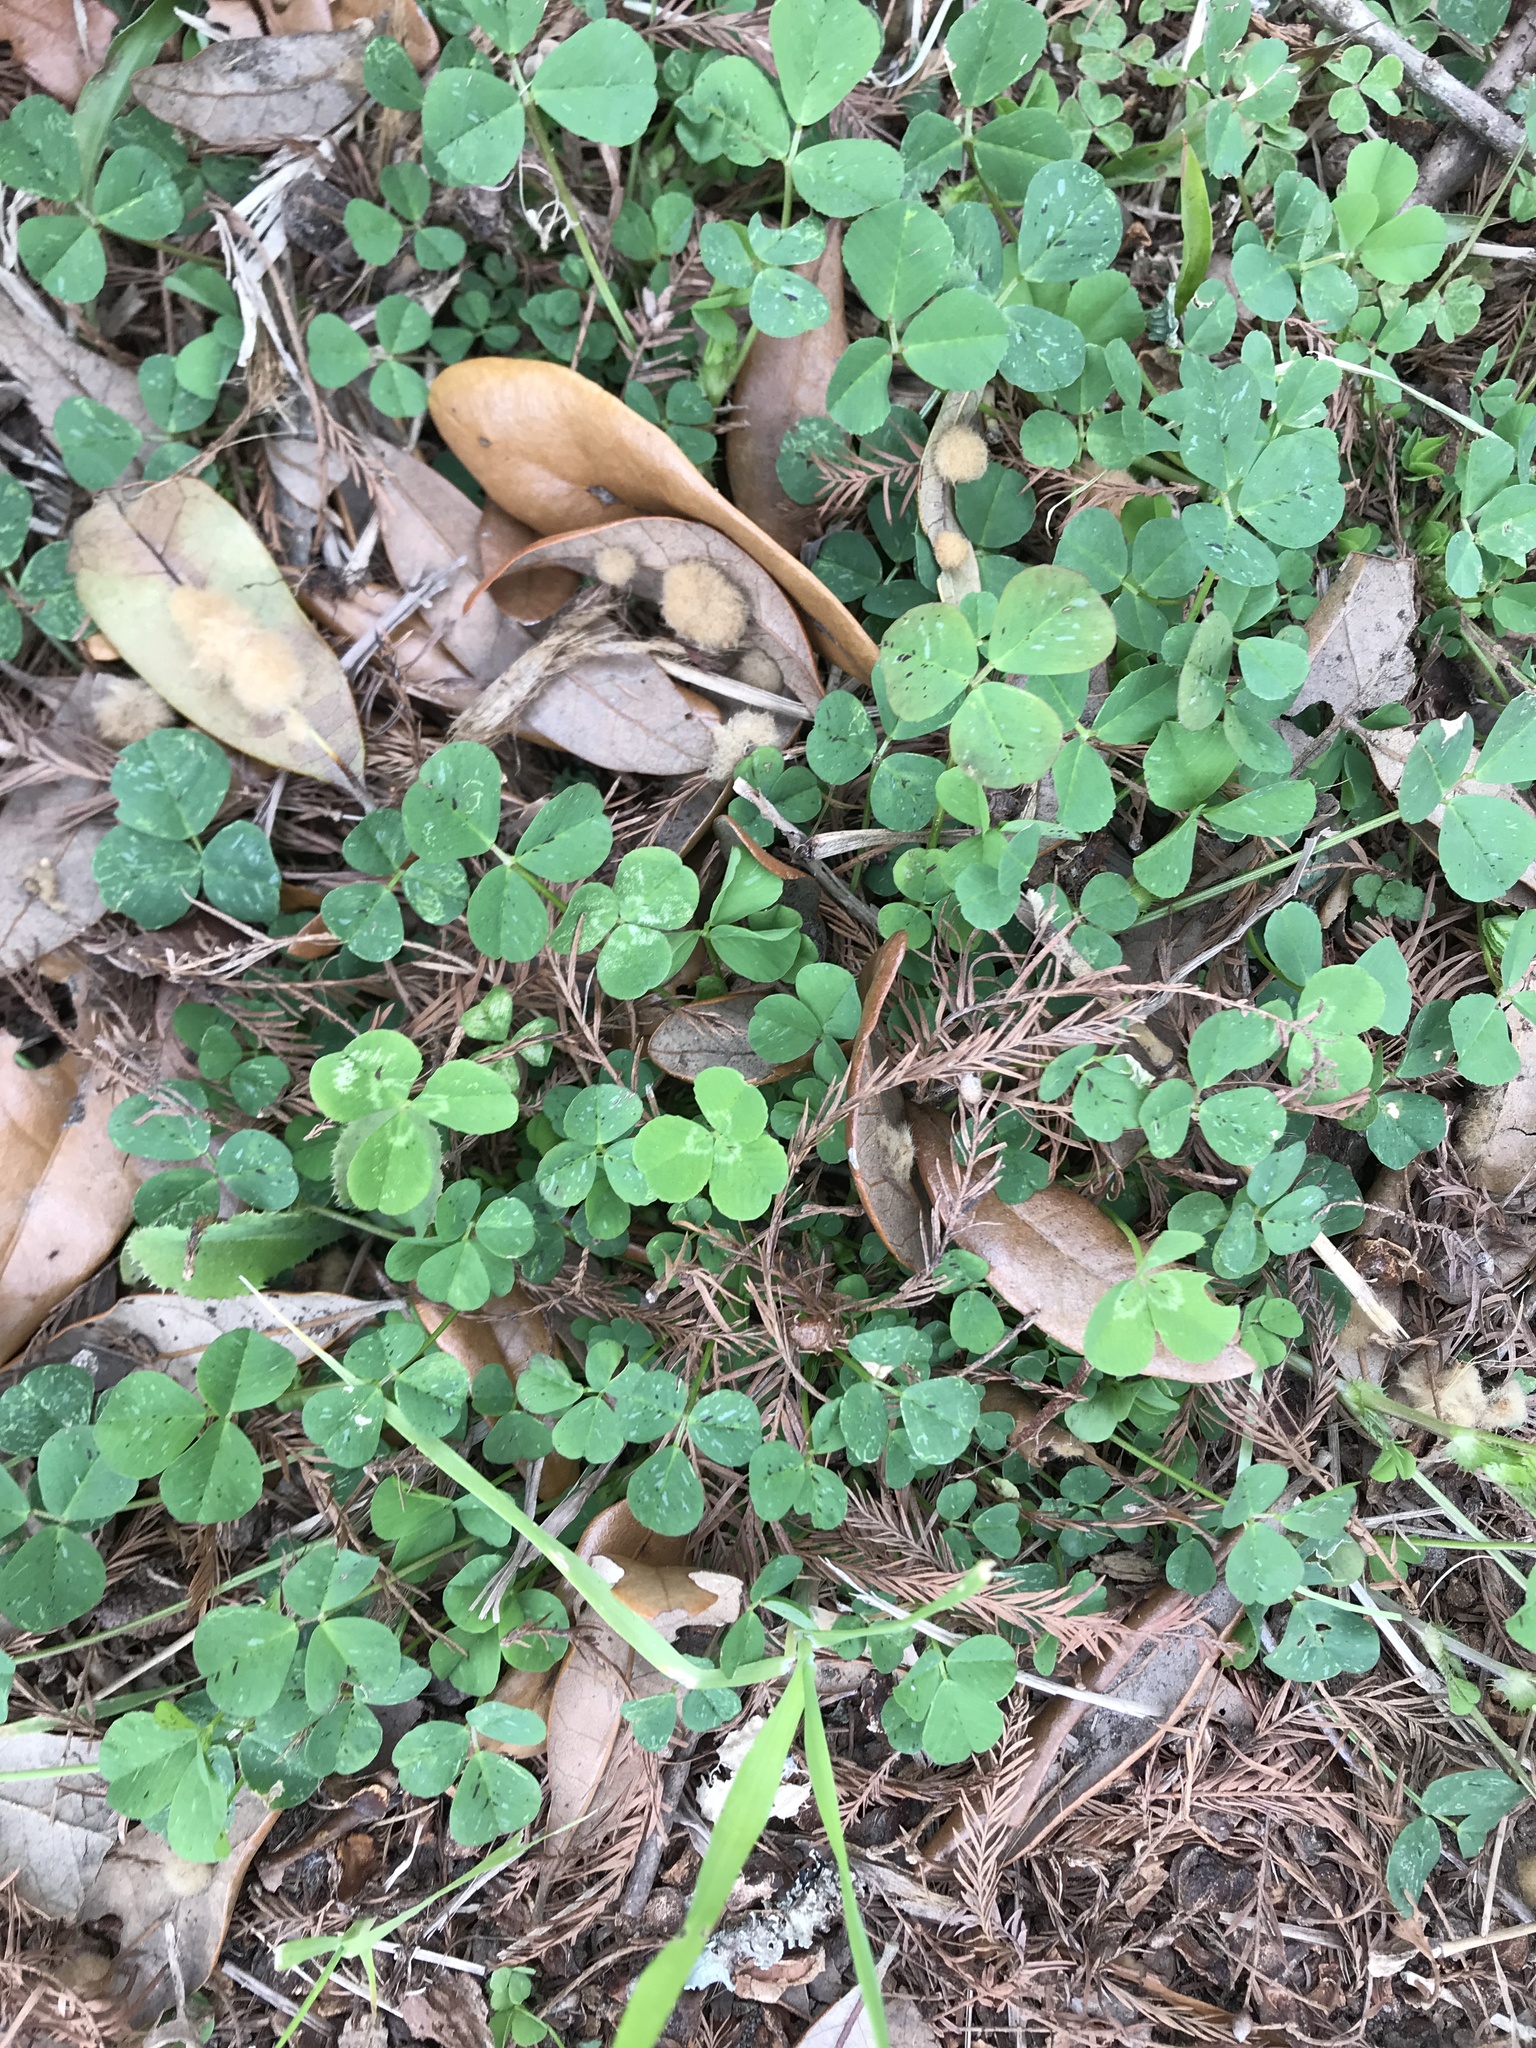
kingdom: Plantae
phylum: Tracheophyta
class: Magnoliopsida
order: Fabales
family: Fabaceae
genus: Trifolium
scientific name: Trifolium repens
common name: White clover
